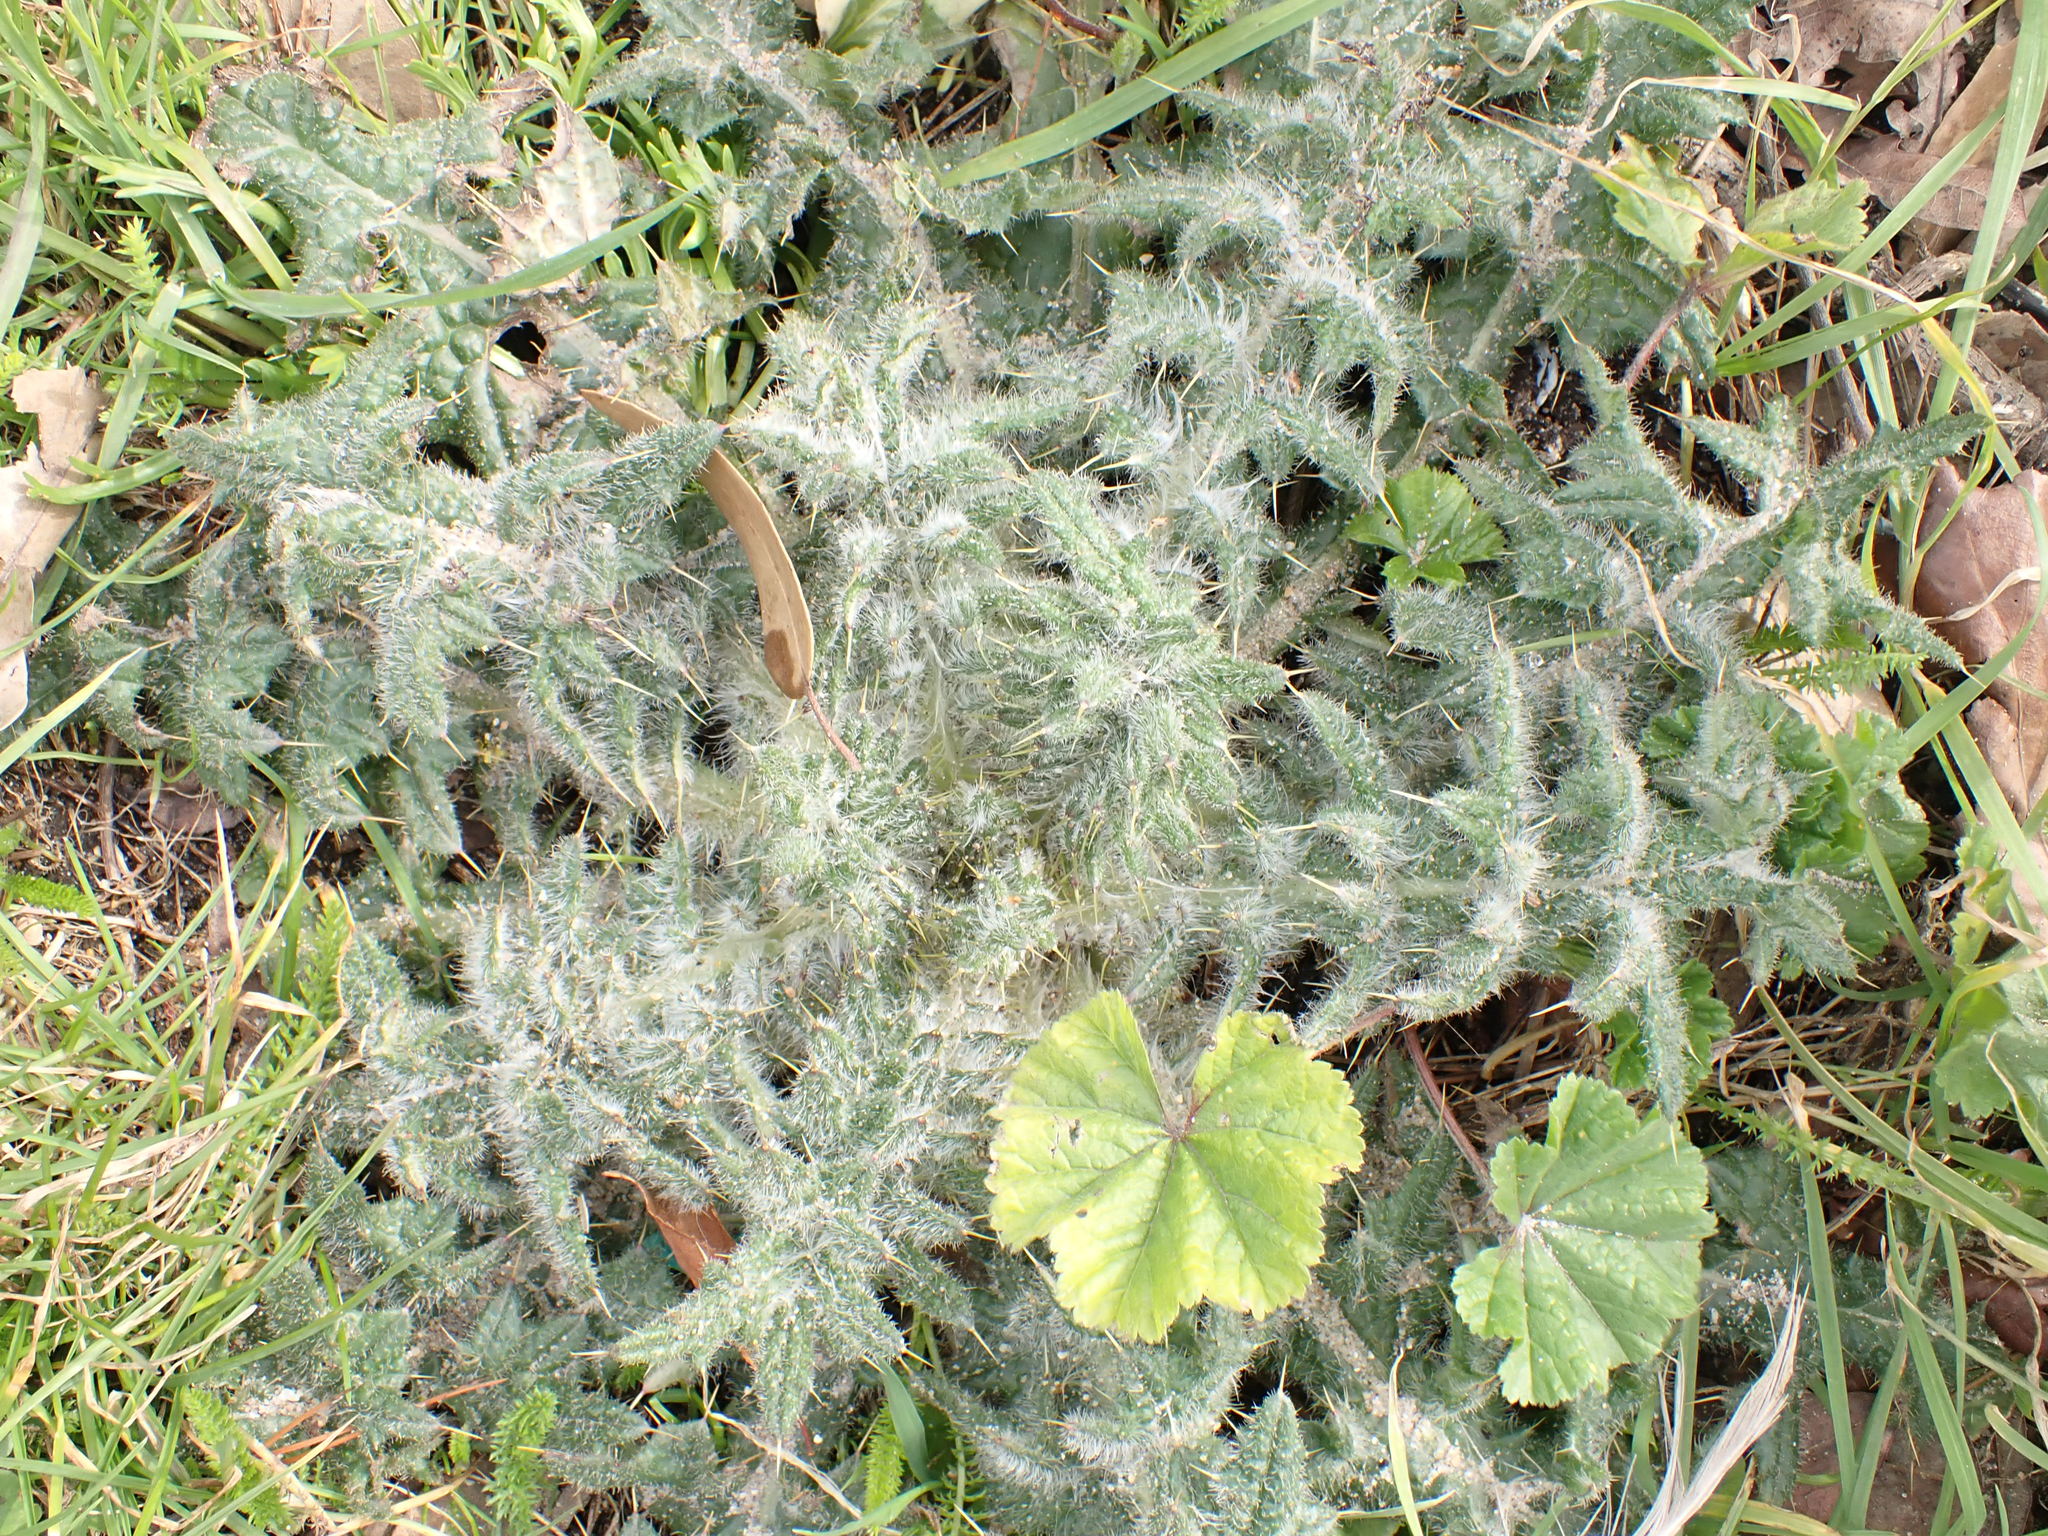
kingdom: Plantae
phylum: Tracheophyta
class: Magnoliopsida
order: Asterales
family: Asteraceae
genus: Cirsium
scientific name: Cirsium vulgare
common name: Bull thistle
